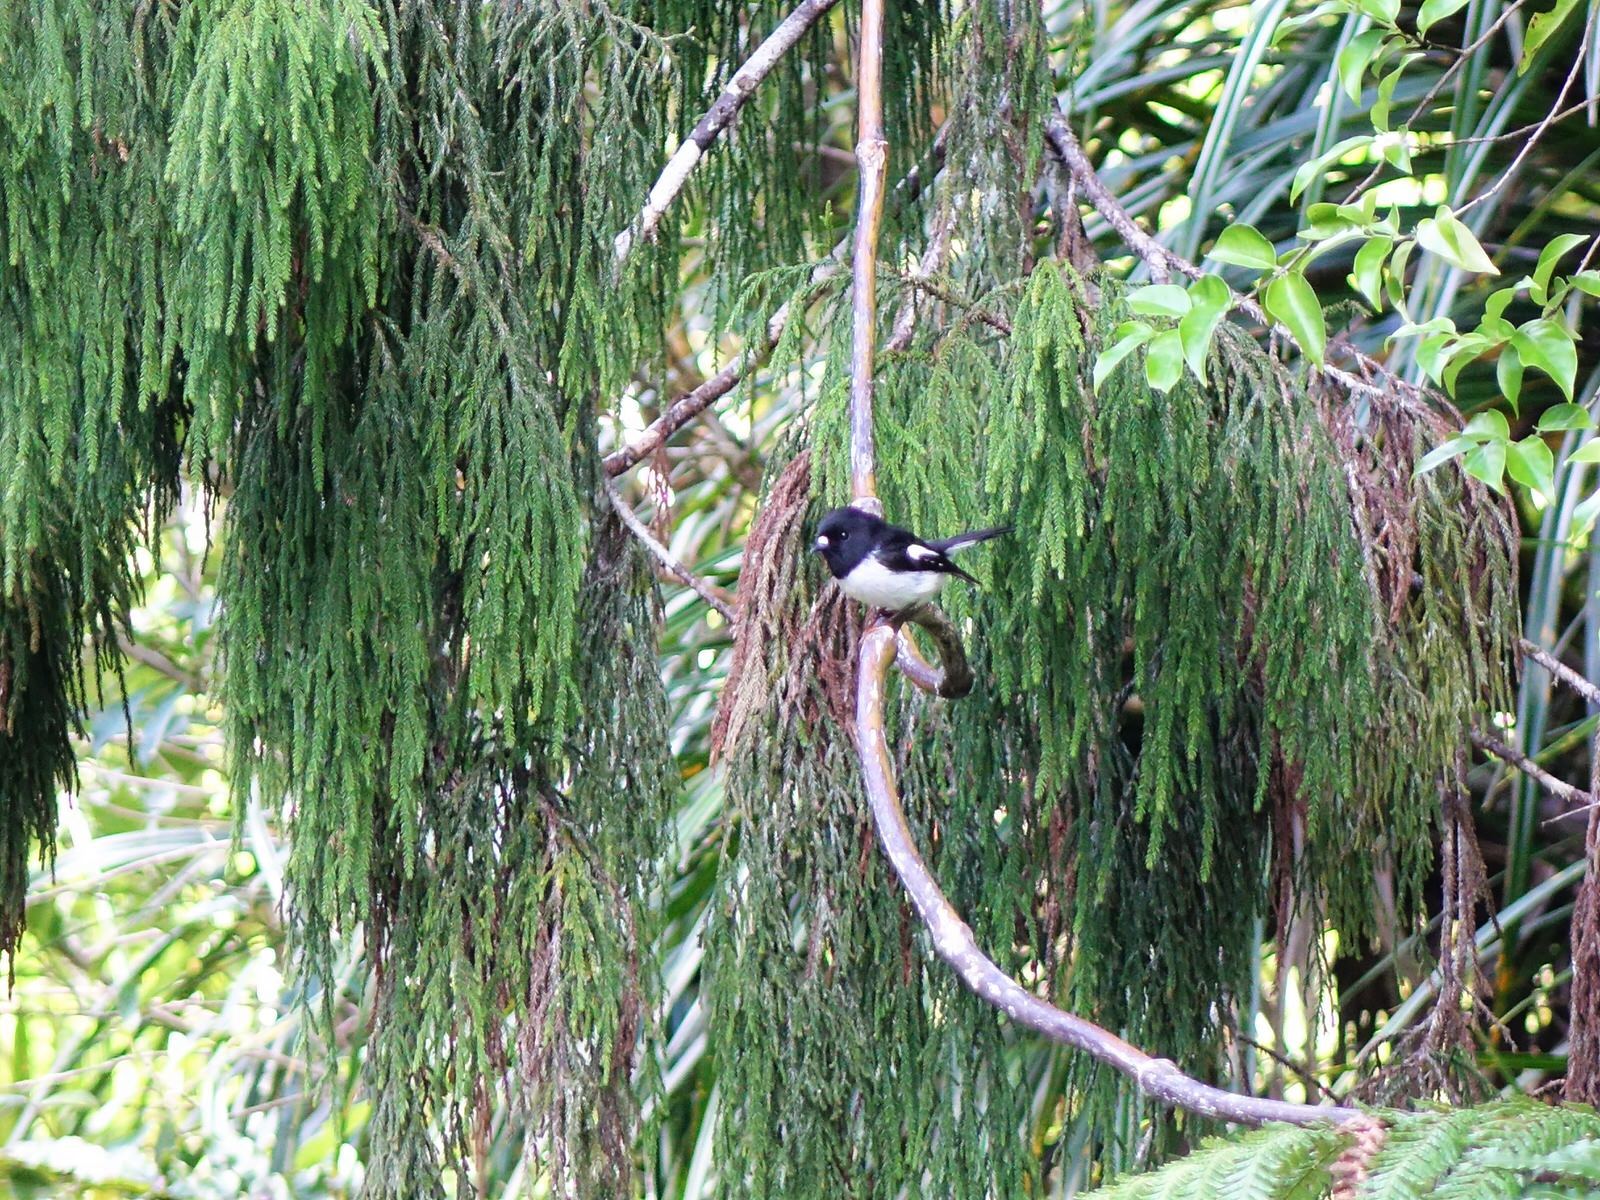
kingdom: Animalia
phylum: Chordata
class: Aves
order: Passeriformes
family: Petroicidae
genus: Petroica
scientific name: Petroica macrocephala
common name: Tomtit
